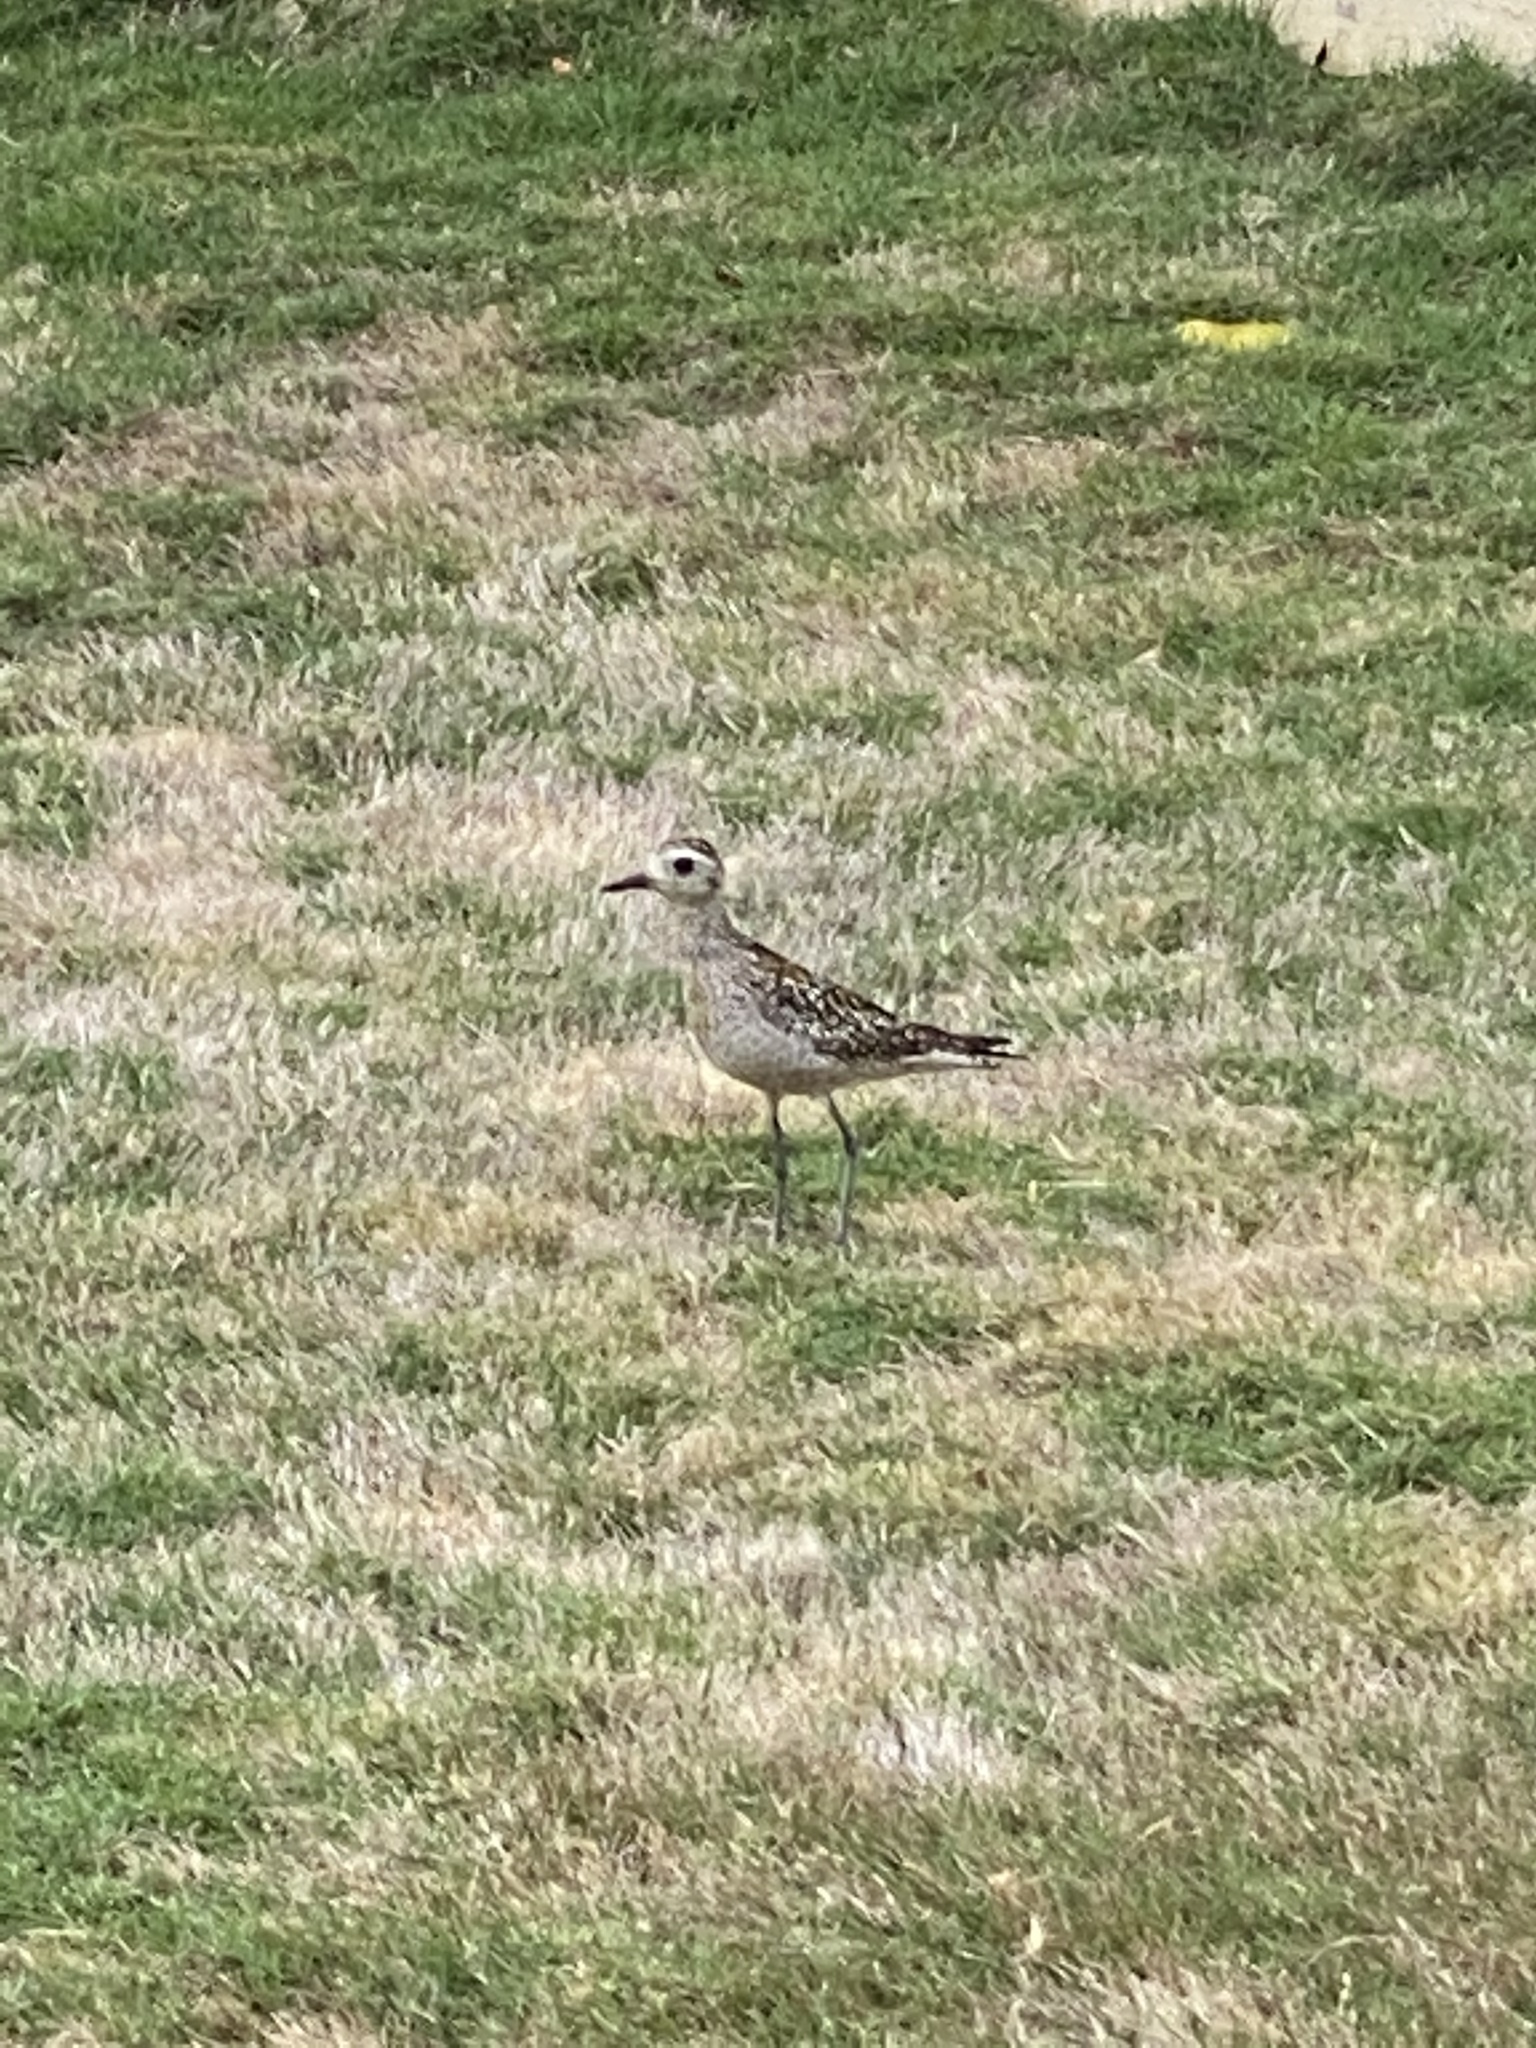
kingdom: Animalia
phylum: Chordata
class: Aves
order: Charadriiformes
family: Charadriidae
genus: Pluvialis
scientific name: Pluvialis fulva
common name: Pacific golden plover
